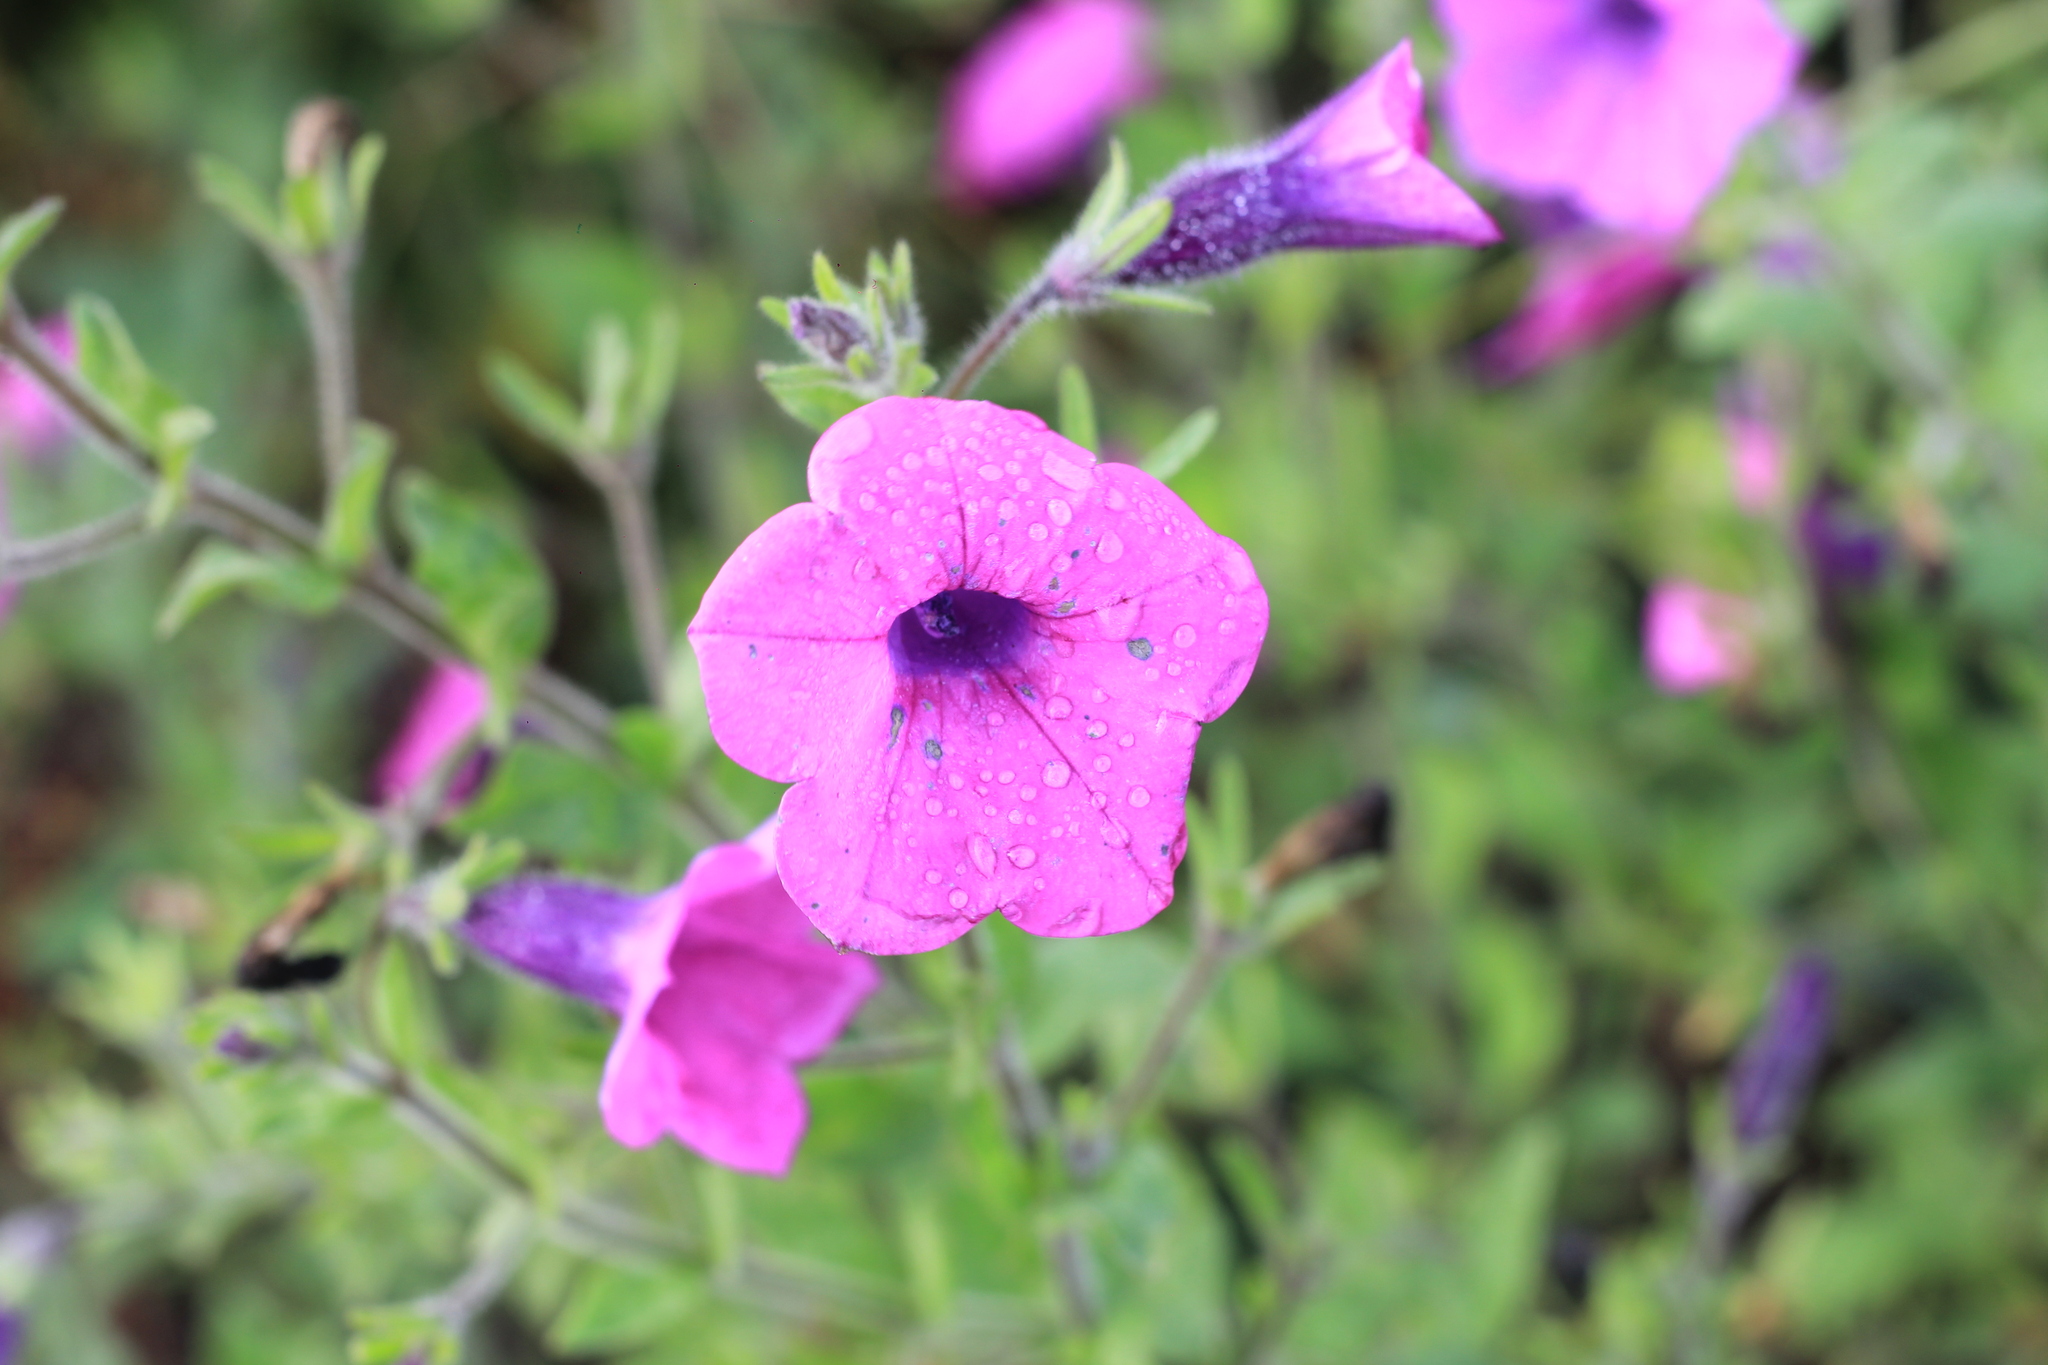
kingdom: Plantae
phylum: Tracheophyta
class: Magnoliopsida
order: Solanales
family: Solanaceae
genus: Petunia
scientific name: Petunia integrifolia
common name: Violet-flower petunia
